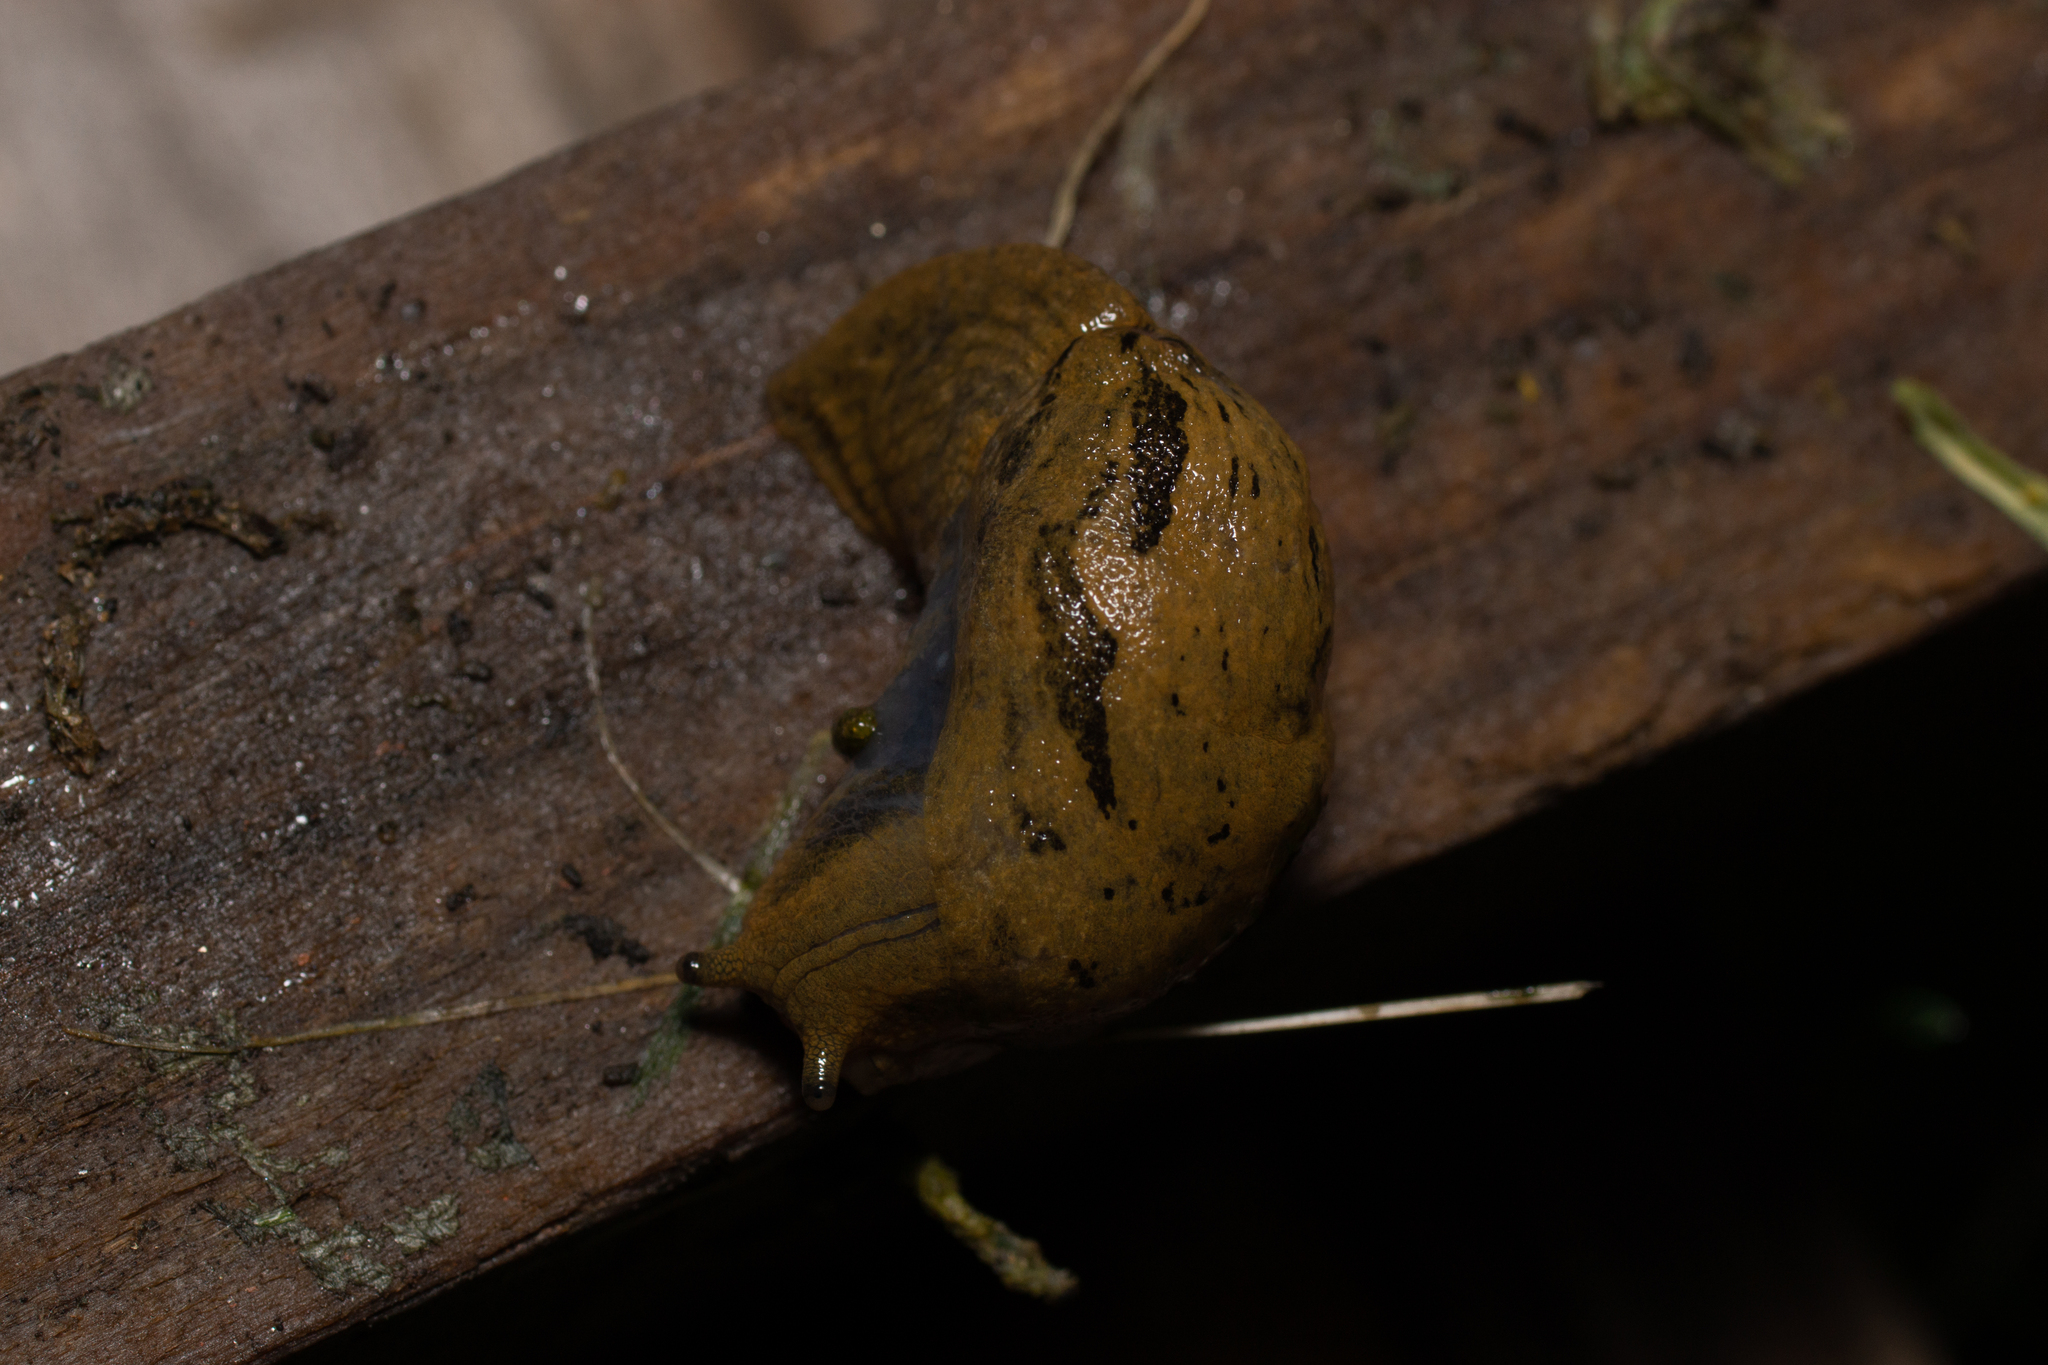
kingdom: Animalia
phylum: Mollusca
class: Gastropoda
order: Stylommatophora
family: Parmacellidae
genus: Drusia
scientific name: Drusia valenciennii
